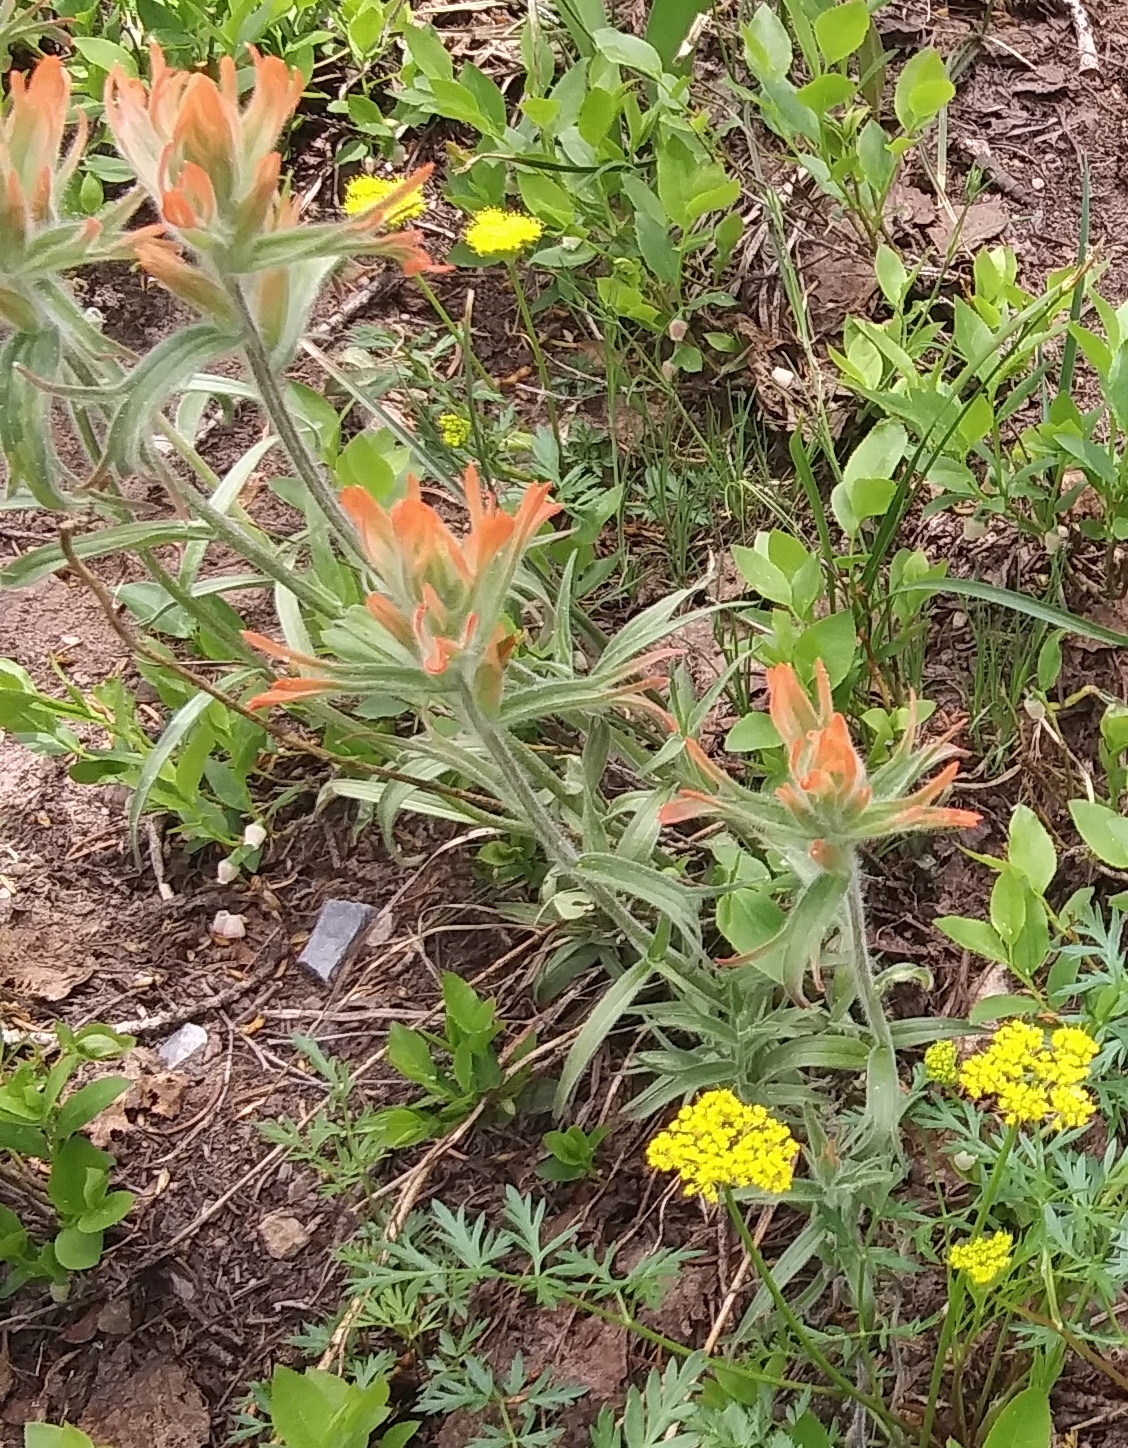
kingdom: Plantae
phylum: Tracheophyta
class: Magnoliopsida
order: Lamiales
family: Orobanchaceae
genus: Castilleja
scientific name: Castilleja miniata
